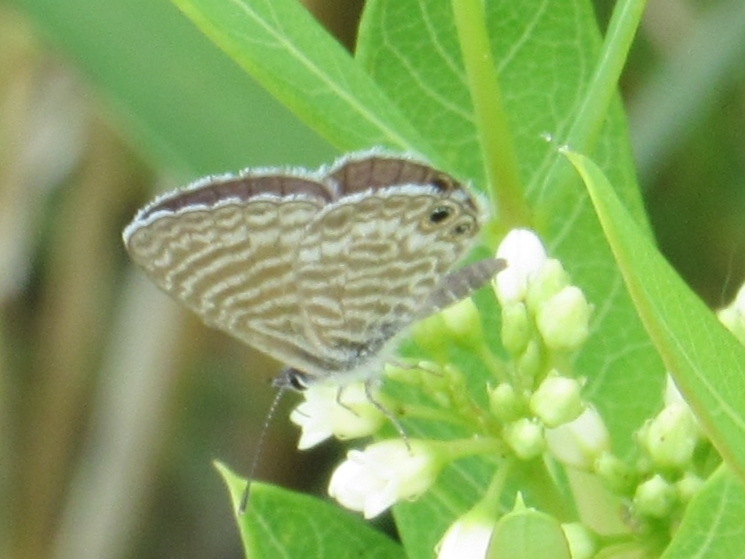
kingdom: Animalia
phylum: Arthropoda
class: Insecta
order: Lepidoptera
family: Lycaenidae
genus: Leptotes
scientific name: Leptotes marina
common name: Marine blue
